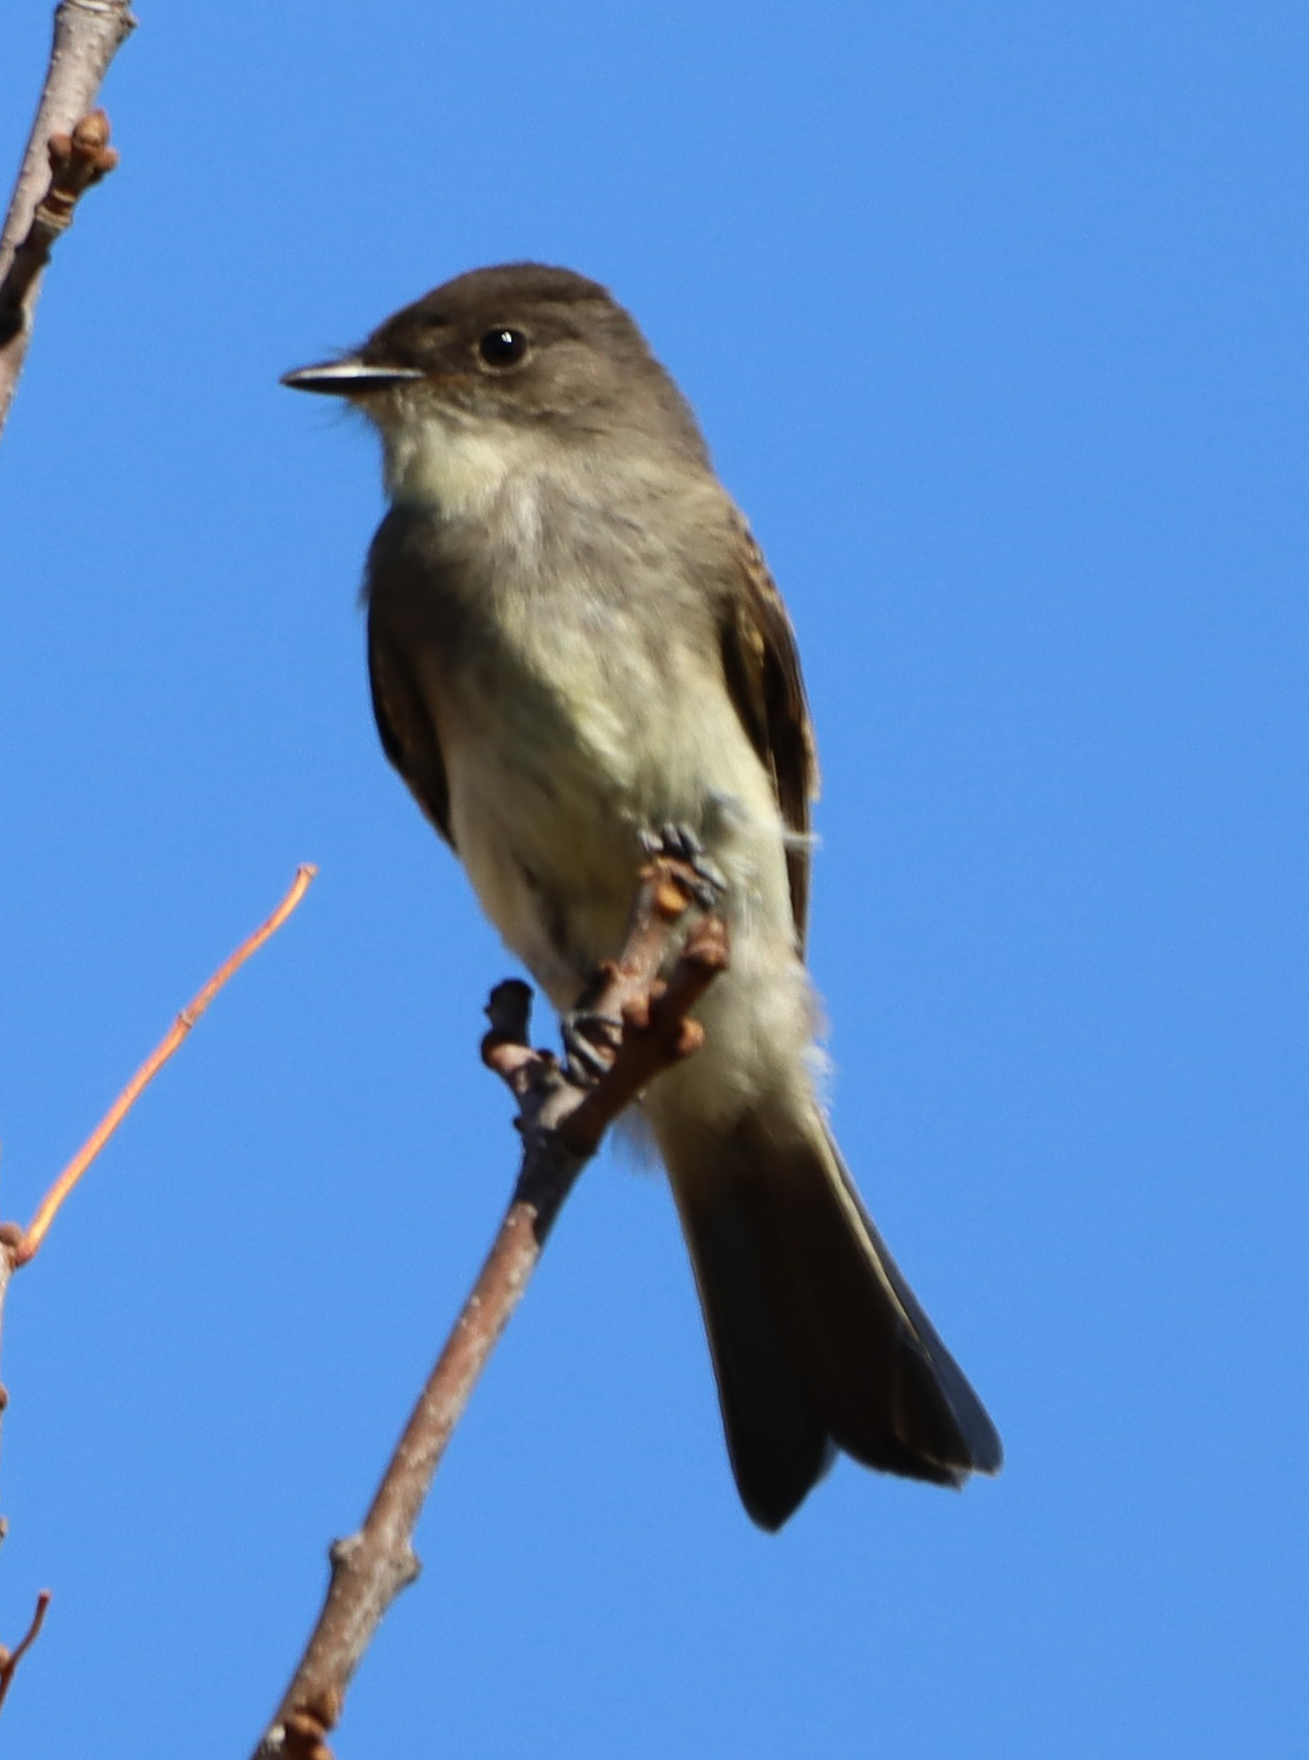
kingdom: Animalia
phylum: Chordata
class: Aves
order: Passeriformes
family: Tyrannidae
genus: Sayornis
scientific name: Sayornis phoebe
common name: Eastern phoebe
